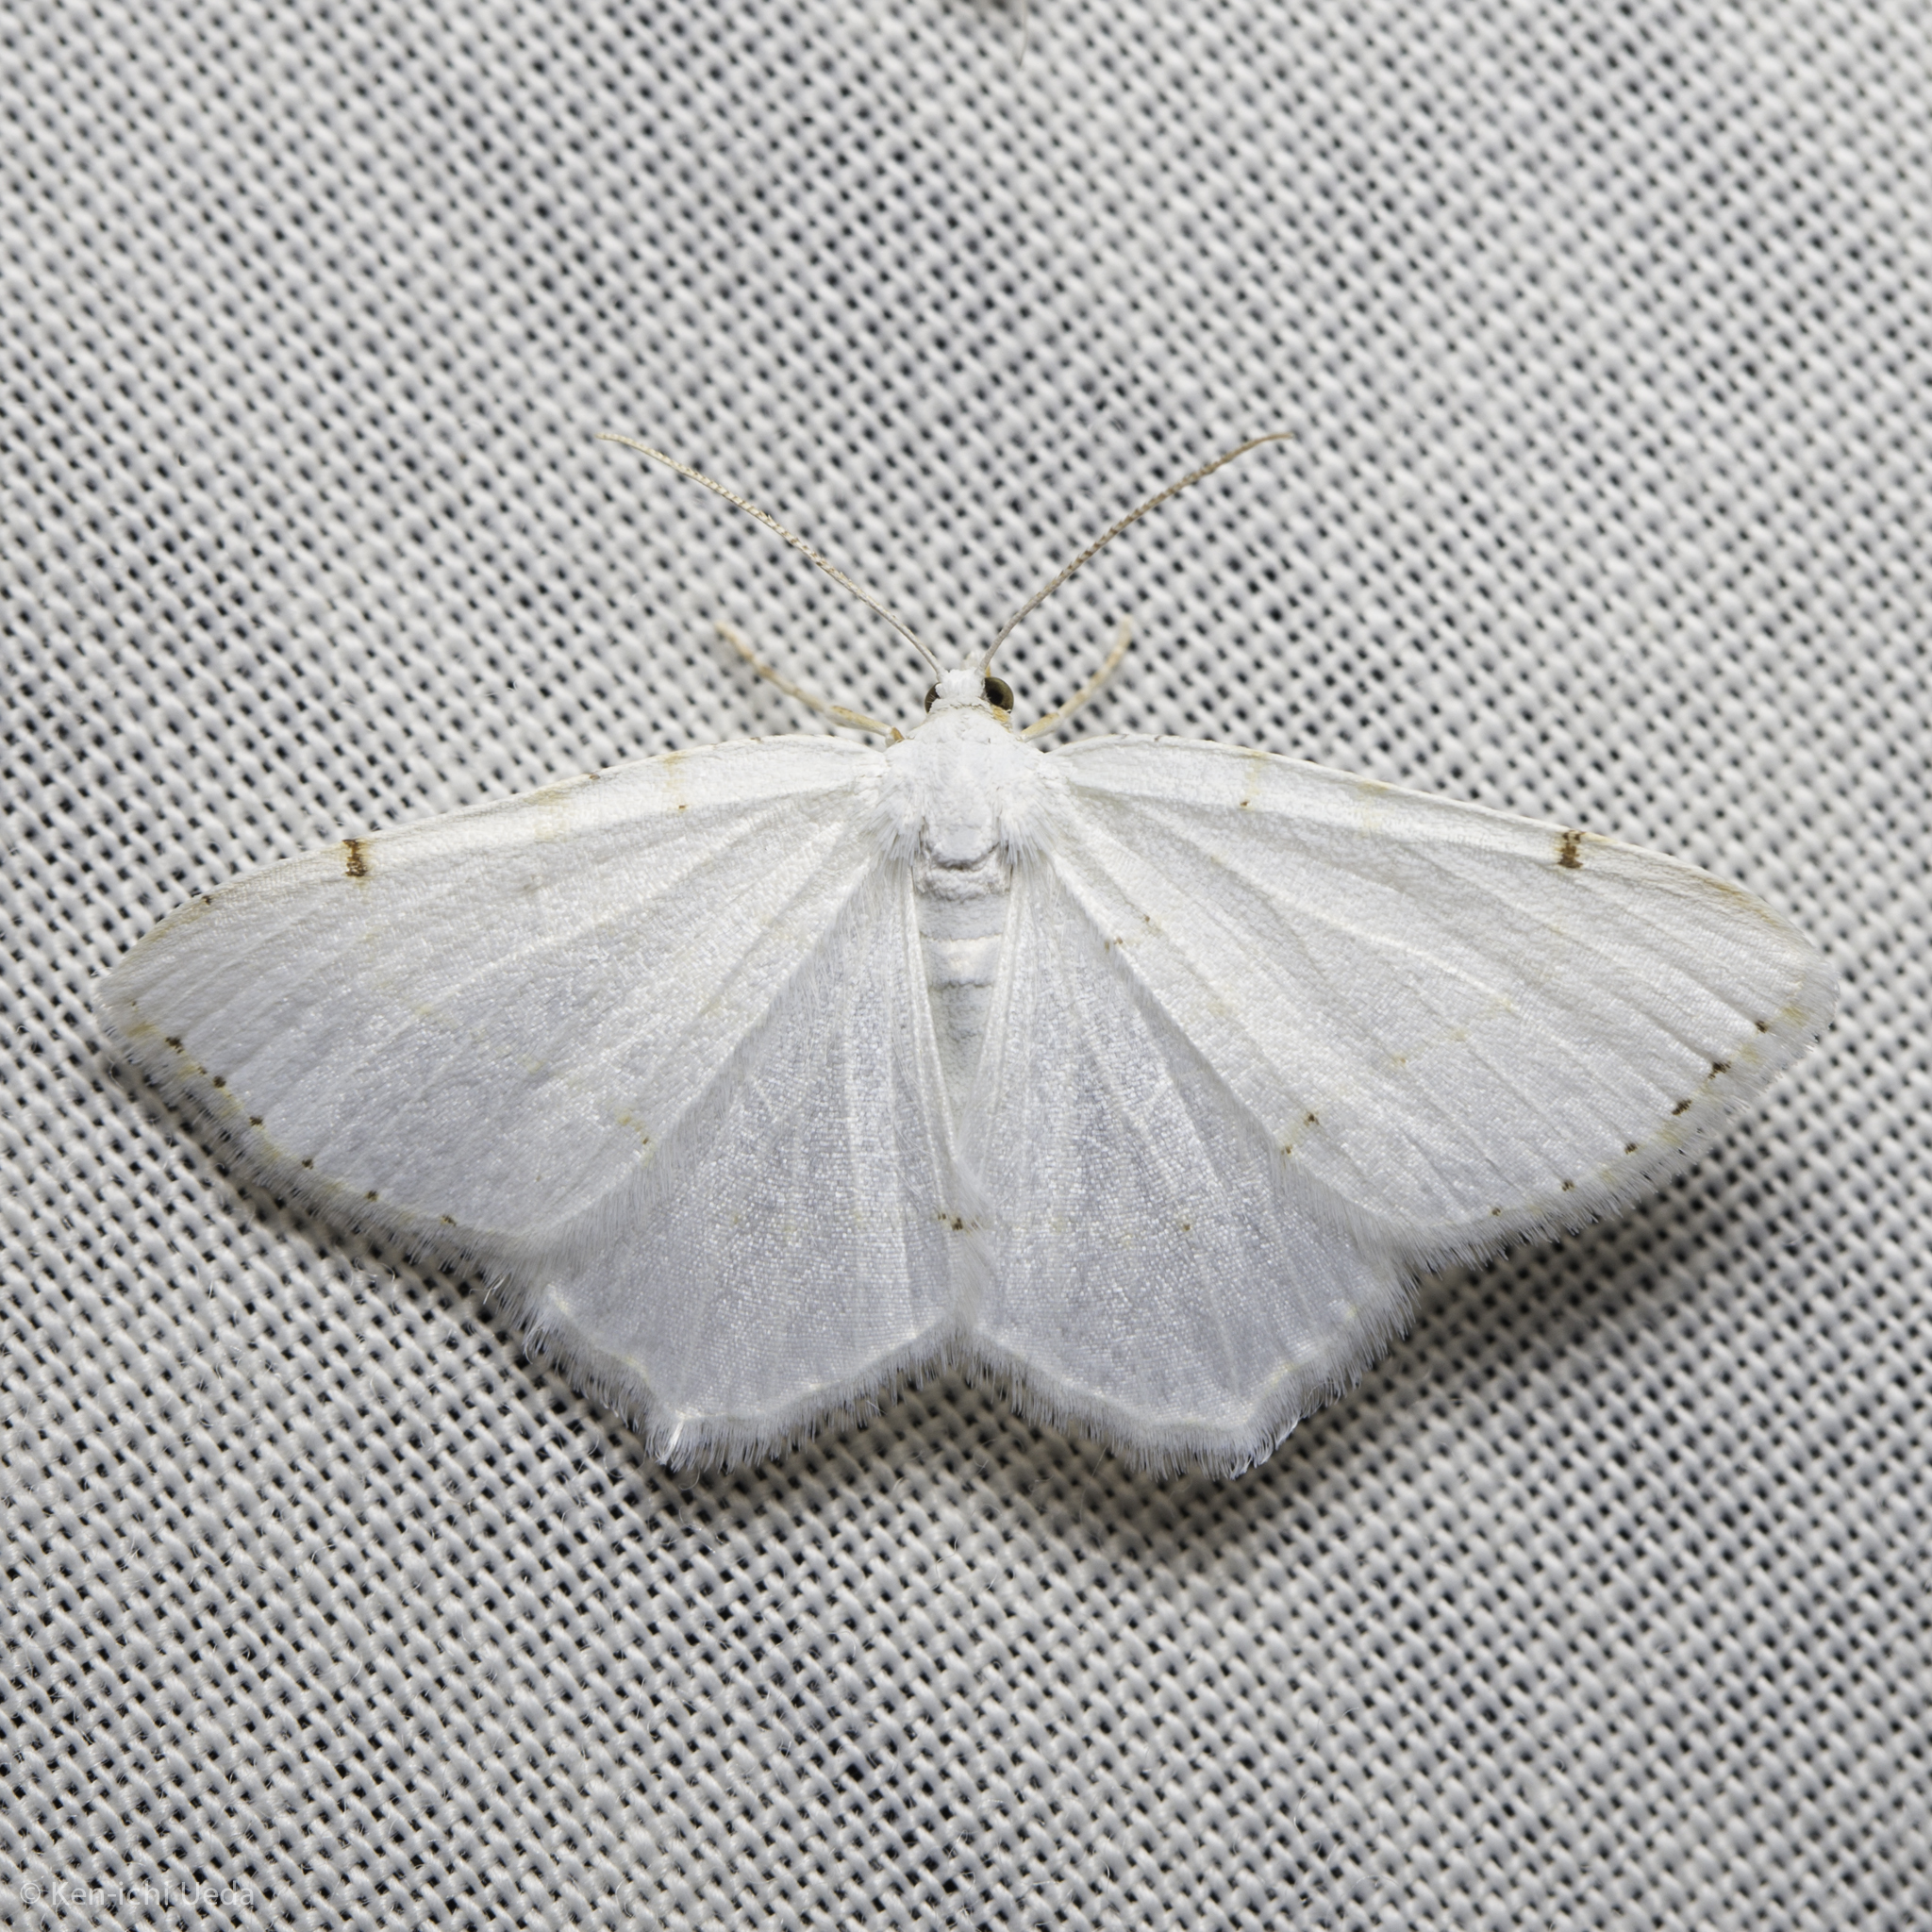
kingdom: Animalia
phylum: Arthropoda
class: Insecta
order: Lepidoptera
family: Geometridae
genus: Macaria
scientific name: Macaria pustularia
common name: Lesser maple spanworm moth
